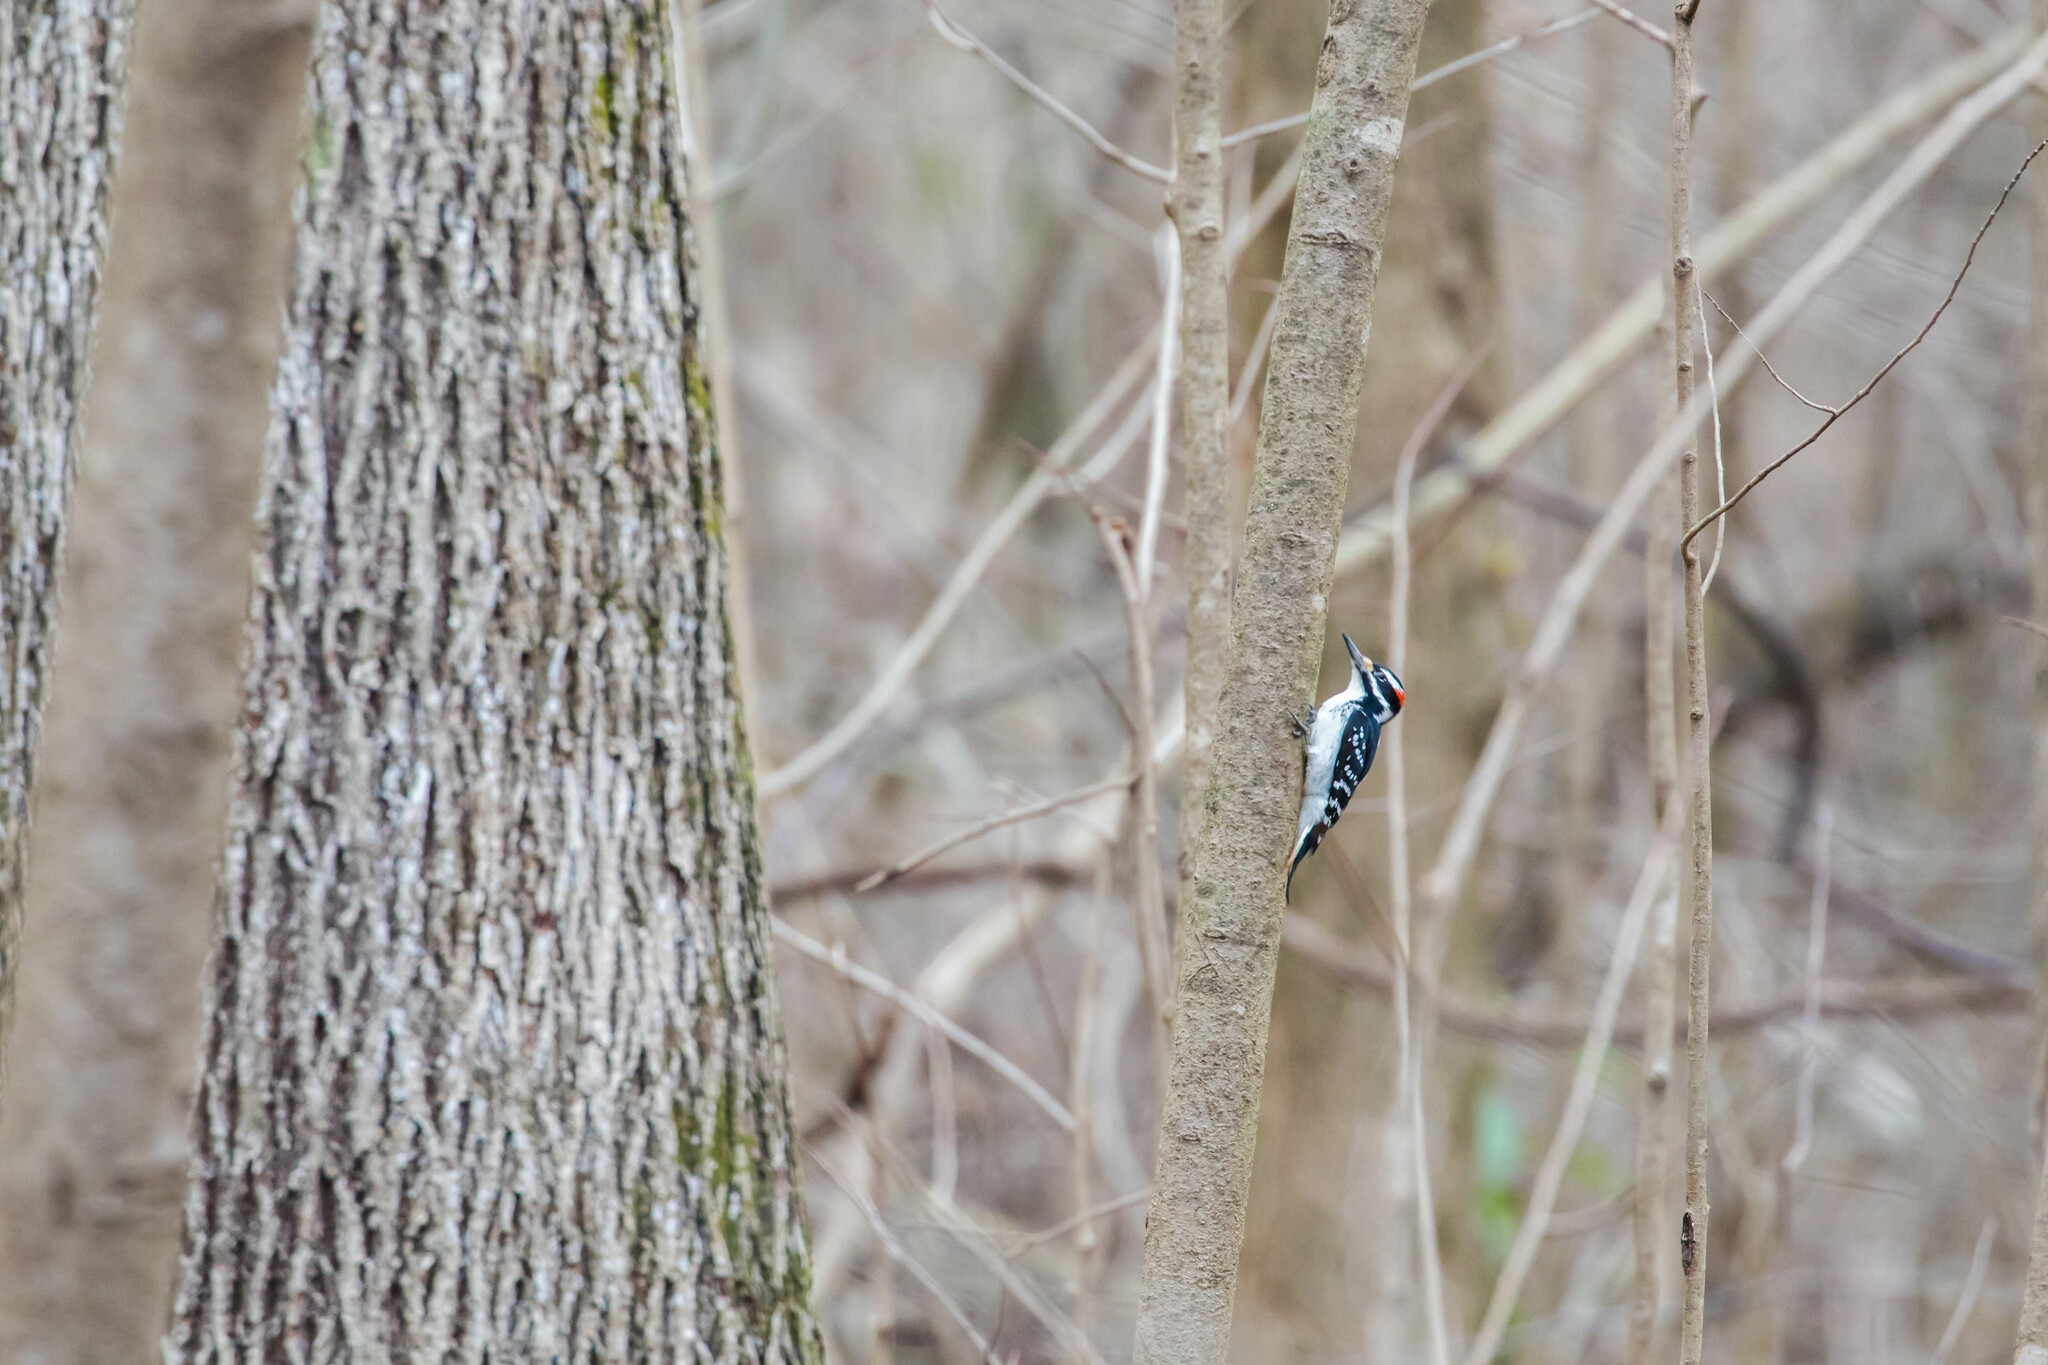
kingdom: Animalia
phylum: Chordata
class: Aves
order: Piciformes
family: Picidae
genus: Leuconotopicus
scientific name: Leuconotopicus villosus
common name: Hairy woodpecker
